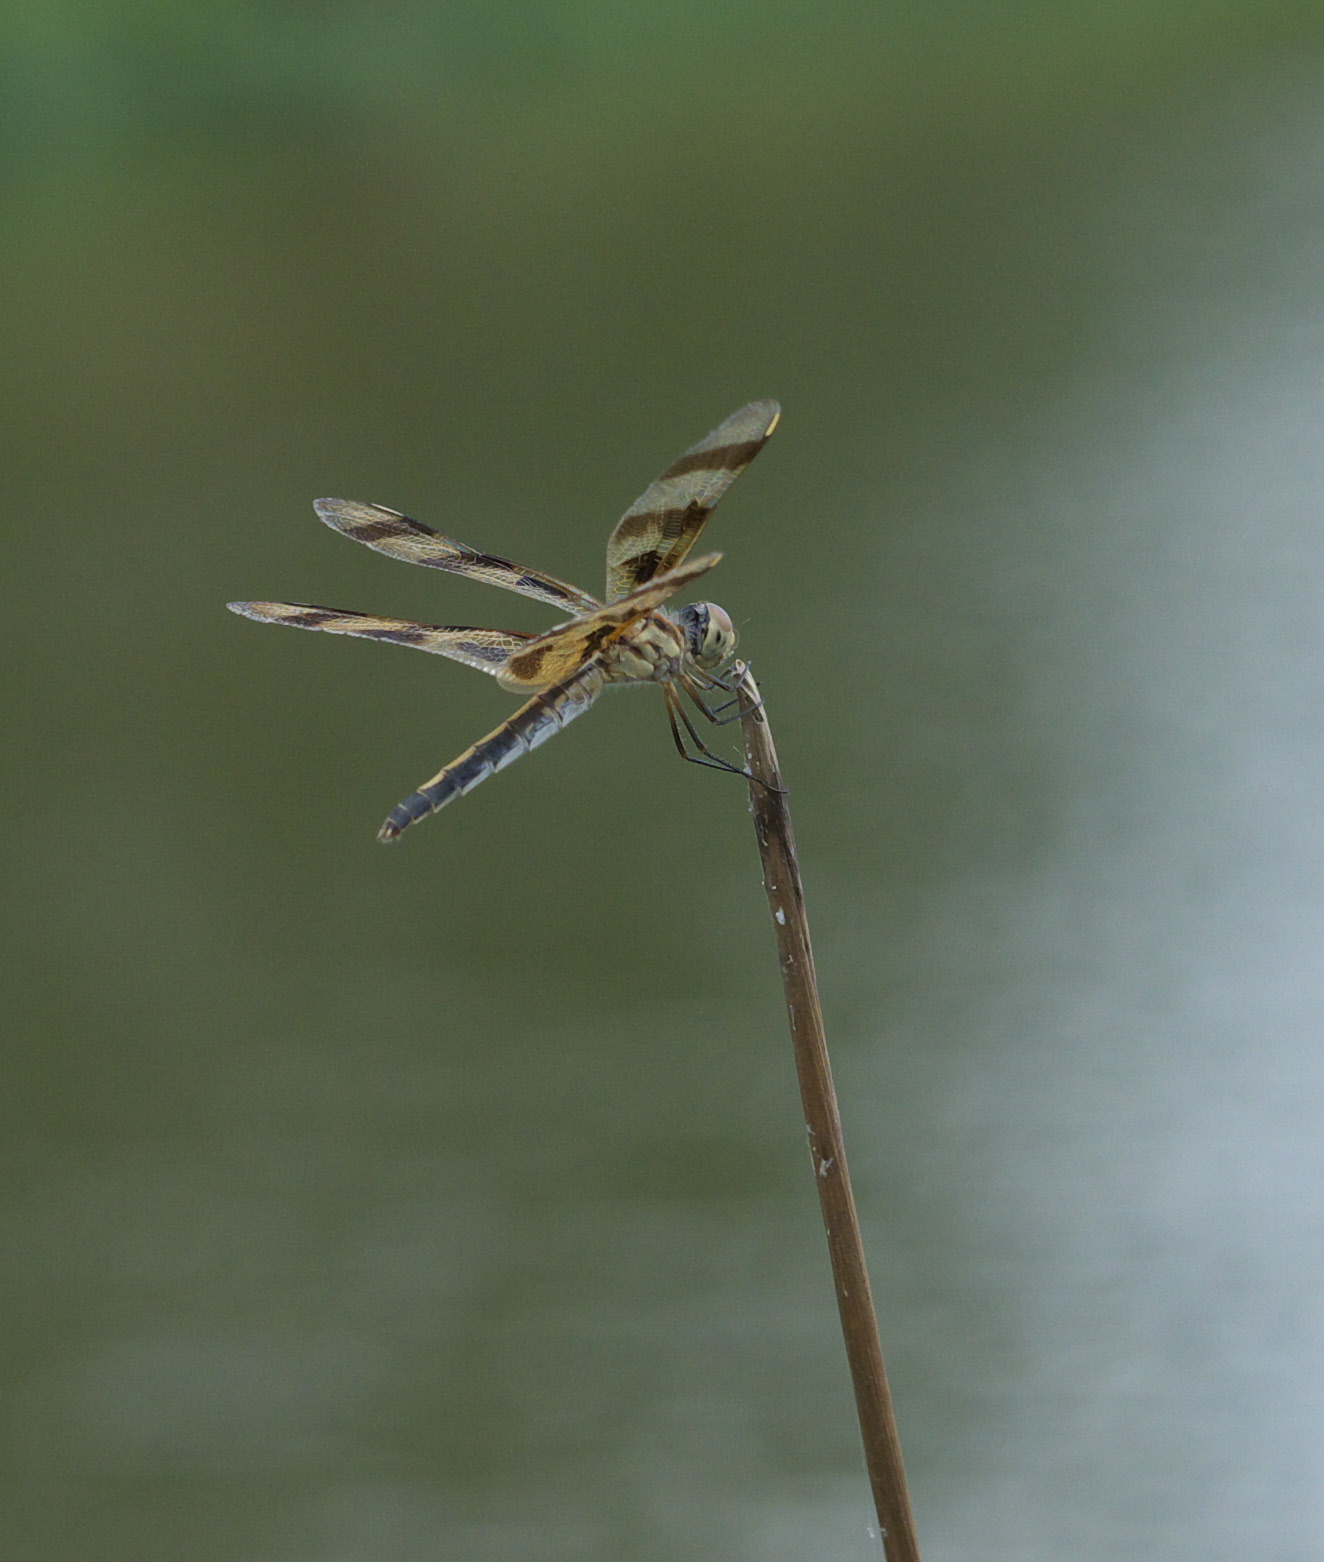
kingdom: Animalia
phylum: Arthropoda
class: Insecta
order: Odonata
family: Libellulidae
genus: Celithemis
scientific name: Celithemis eponina
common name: Halloween pennant
